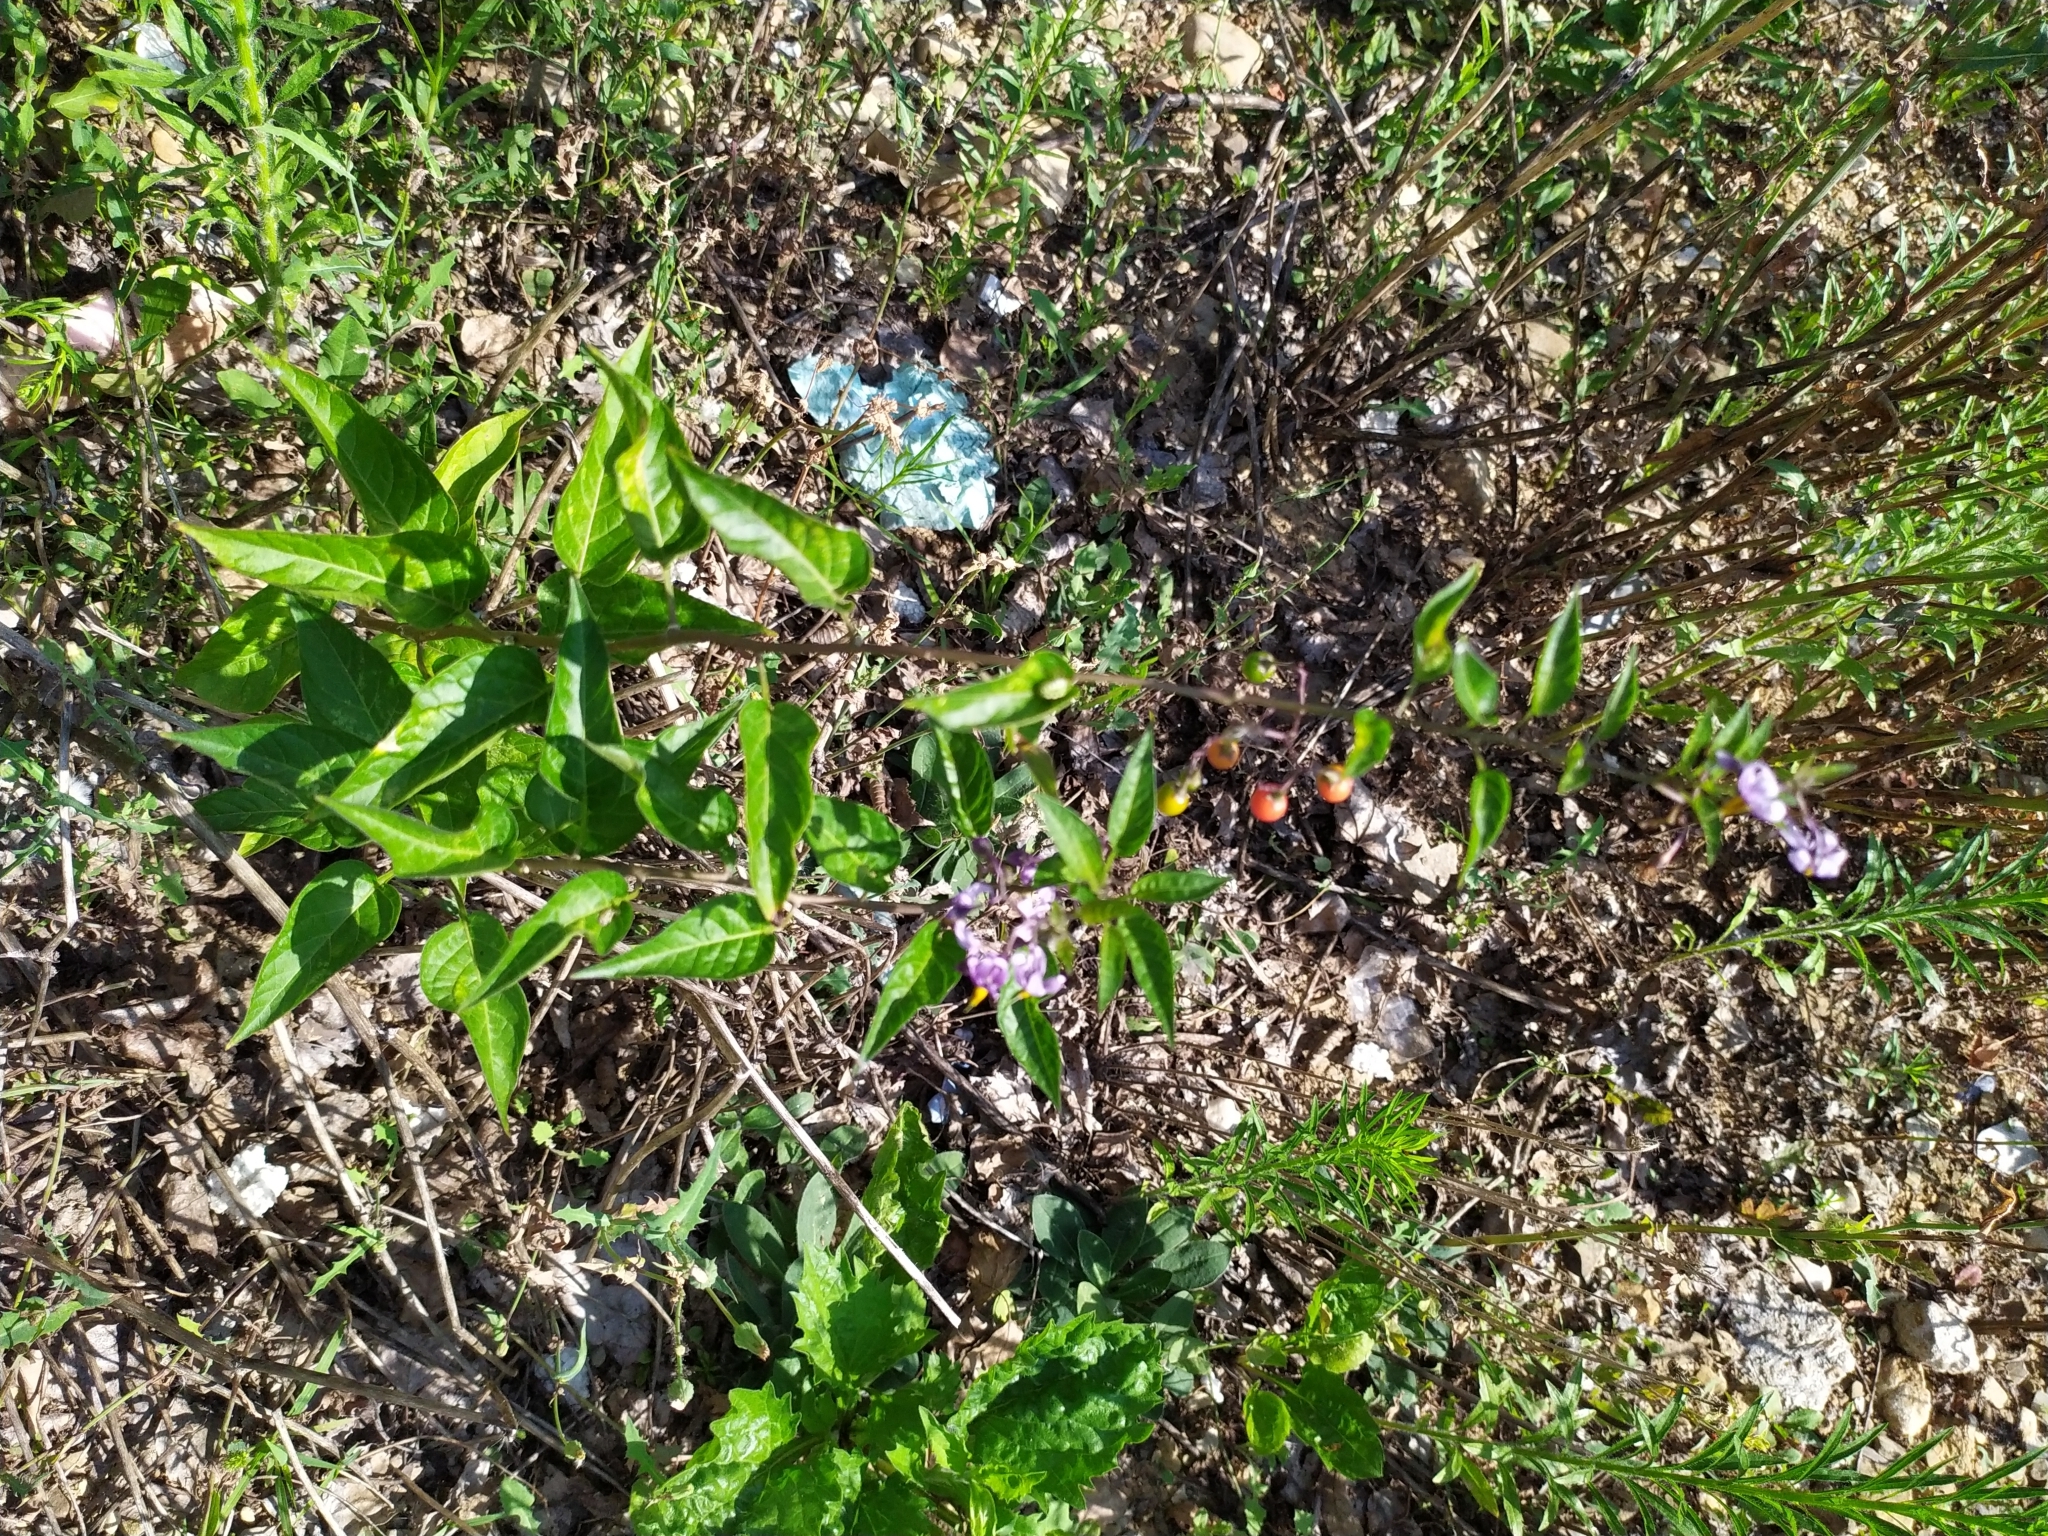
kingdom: Plantae
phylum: Tracheophyta
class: Magnoliopsida
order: Solanales
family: Solanaceae
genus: Solanum
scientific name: Solanum dulcamara
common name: Climbing nightshade
